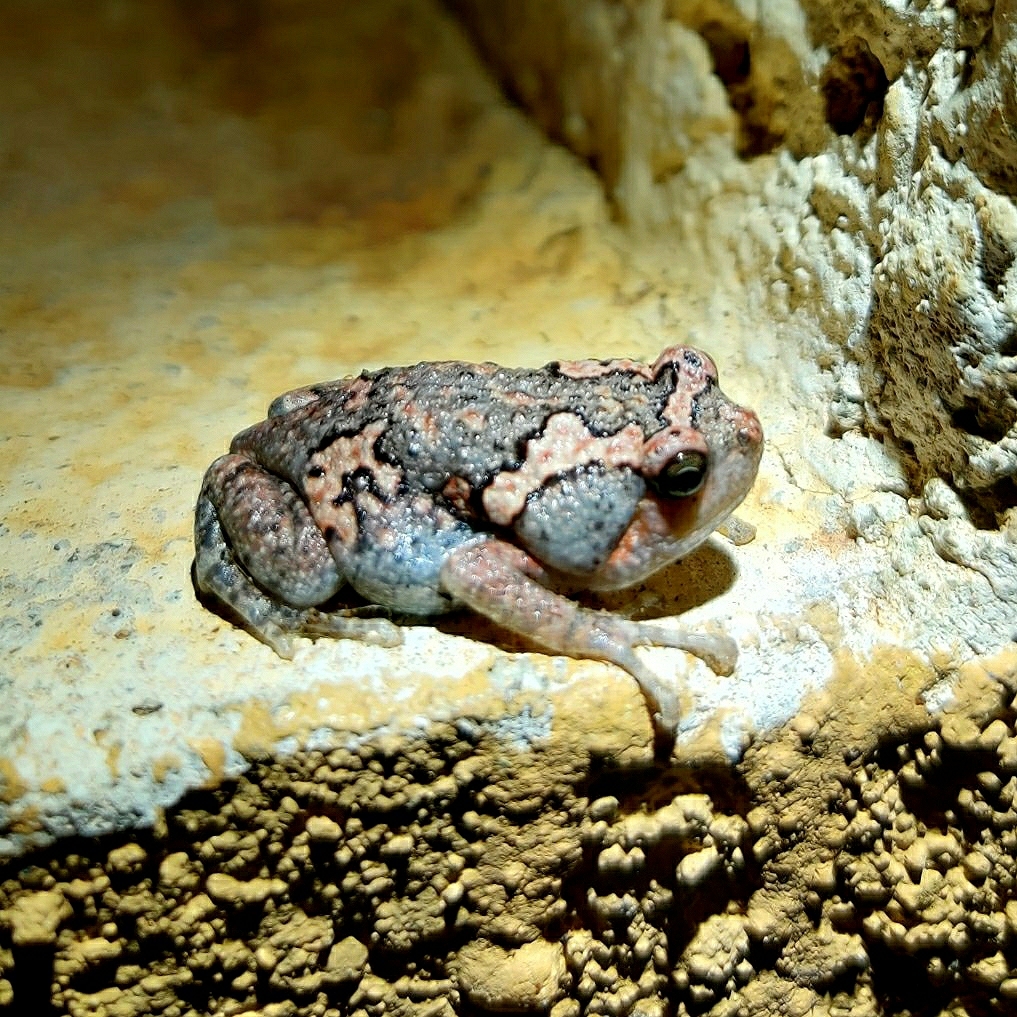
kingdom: Animalia
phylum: Chordata
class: Amphibia
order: Anura
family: Microhylidae
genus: Uperodon
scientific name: Uperodon taprobanicus
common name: Ceylon kaloula
